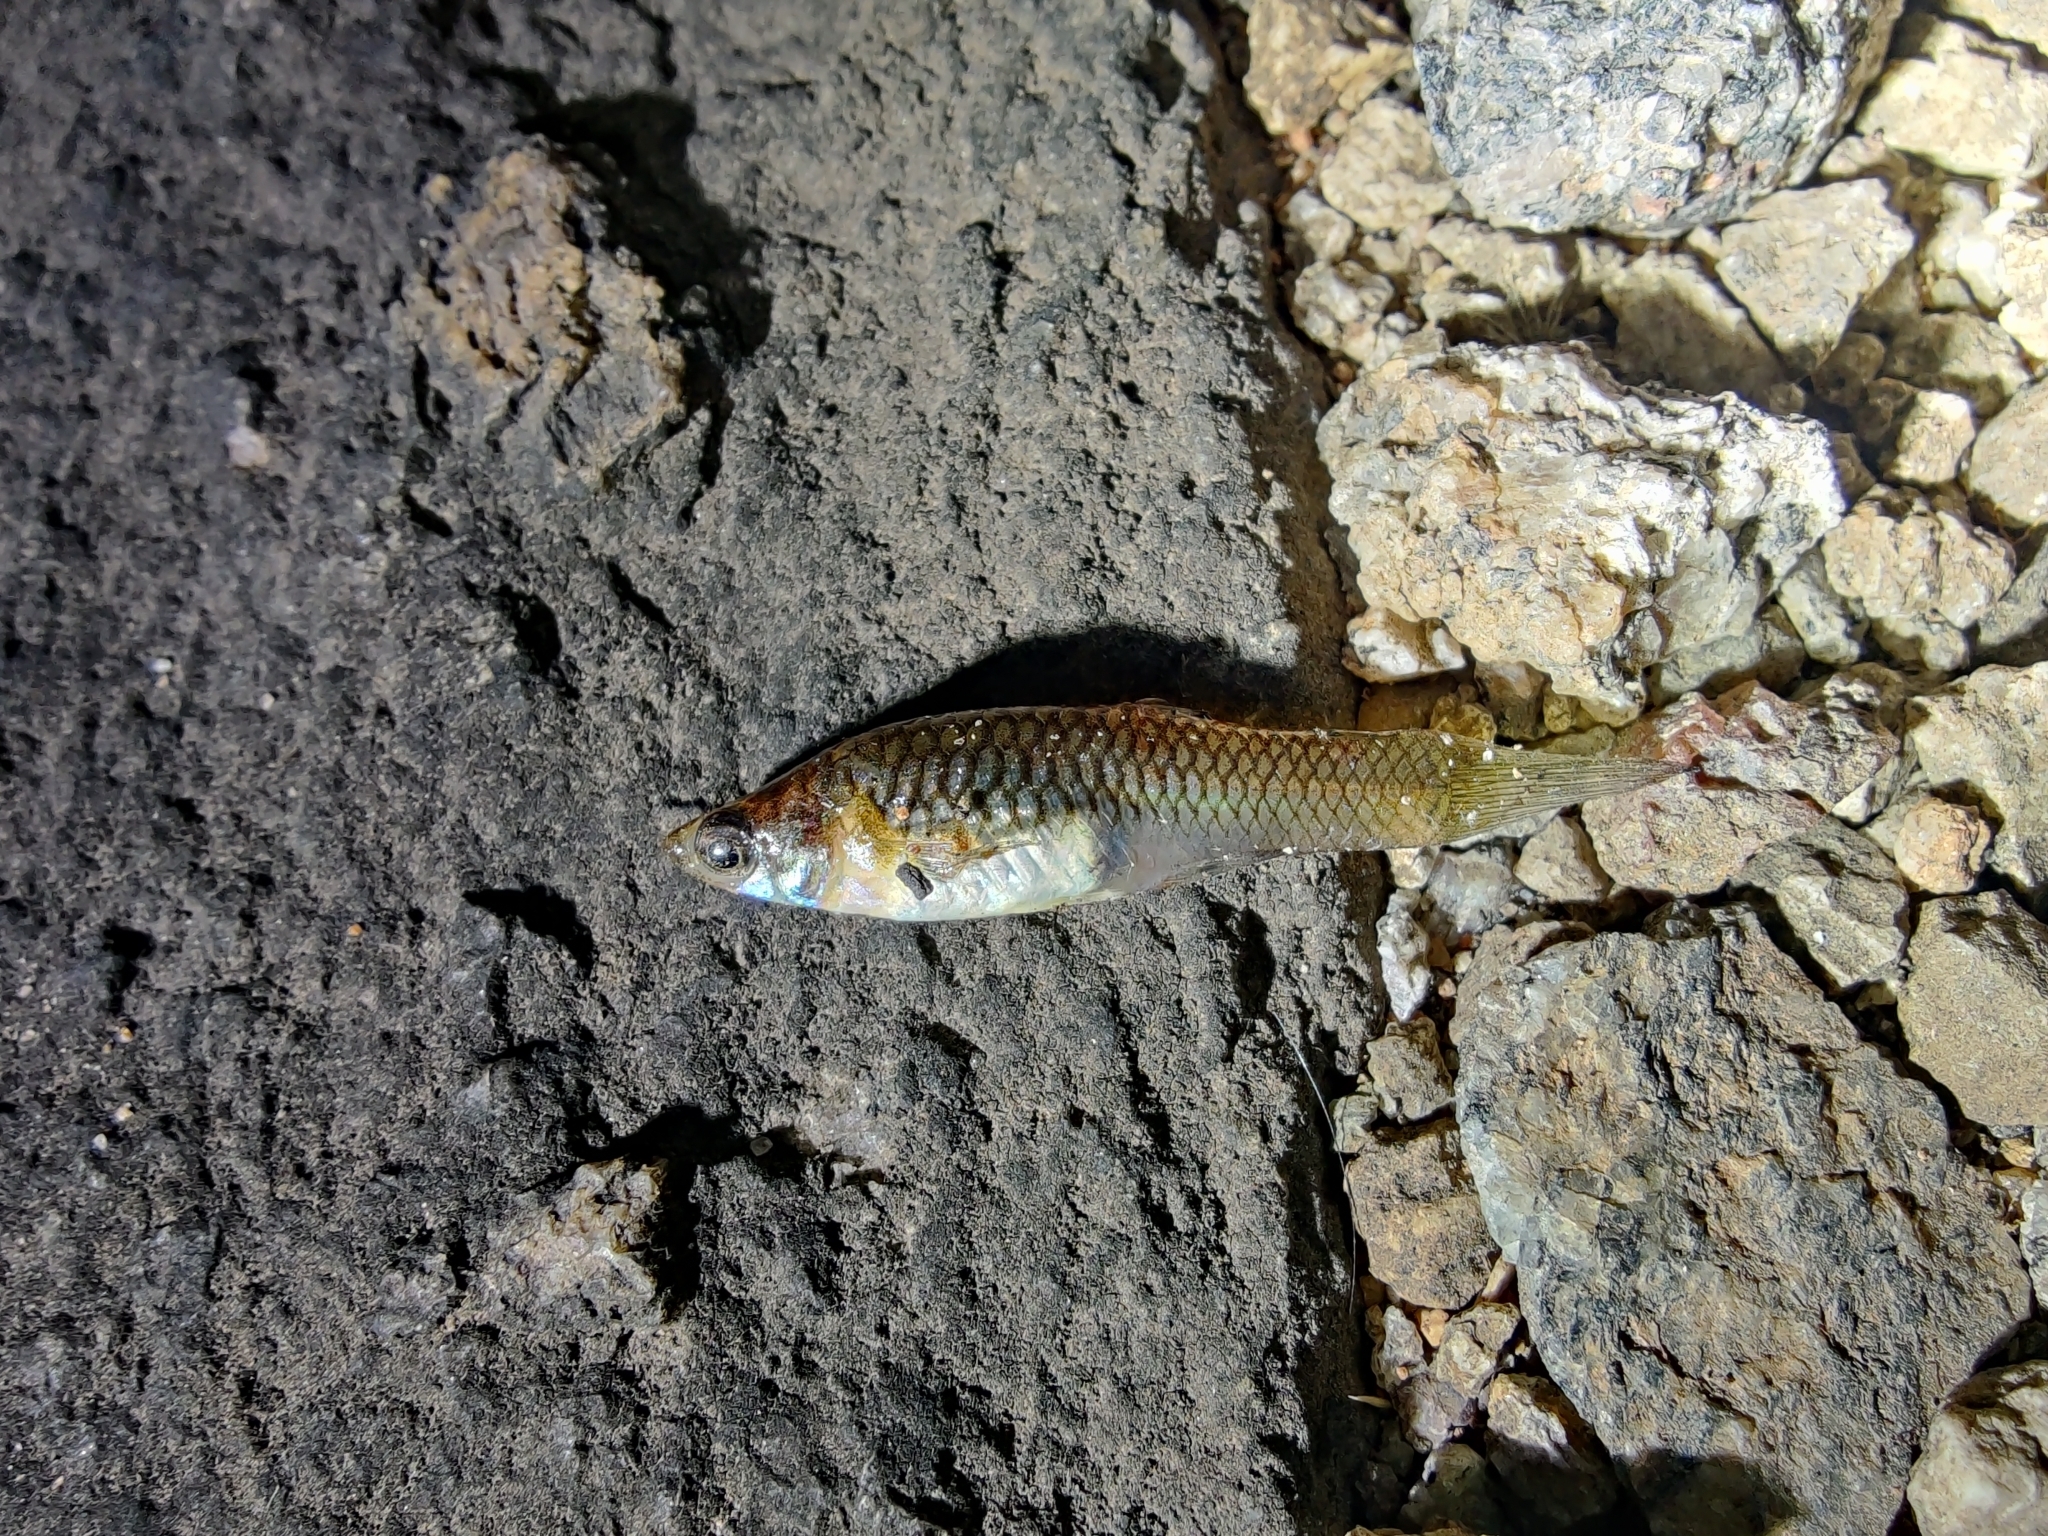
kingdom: Animalia
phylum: Chordata
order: Cyprinodontiformes
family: Poeciliidae
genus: Poecilia
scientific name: Poecilia reticulata
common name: Guppy
